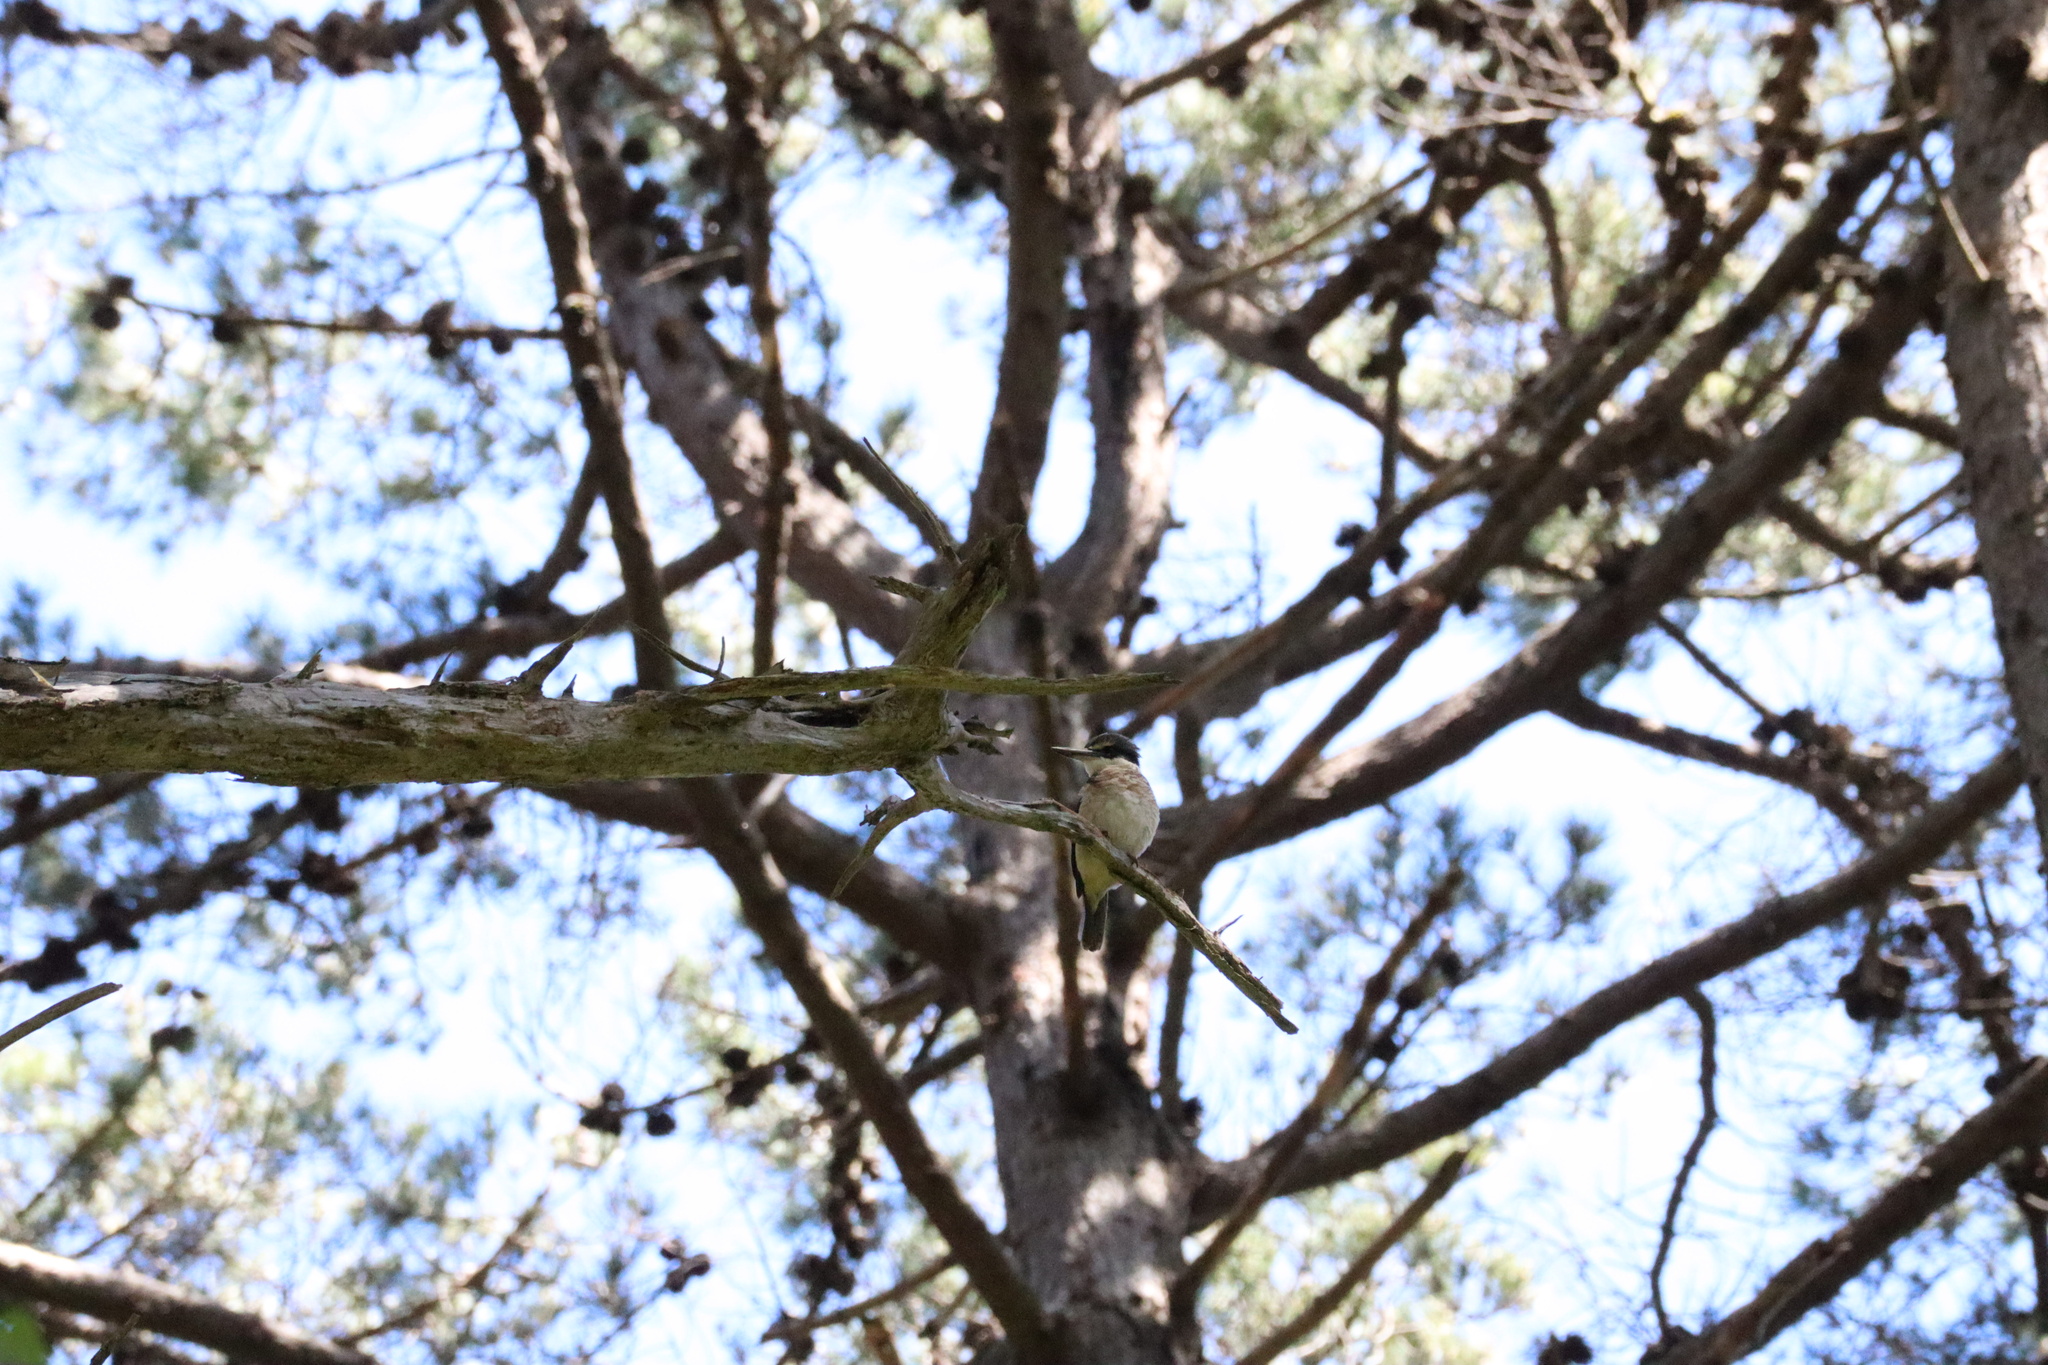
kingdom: Animalia
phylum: Chordata
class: Aves
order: Coraciiformes
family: Alcedinidae
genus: Todiramphus
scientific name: Todiramphus sanctus
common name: Sacred kingfisher
